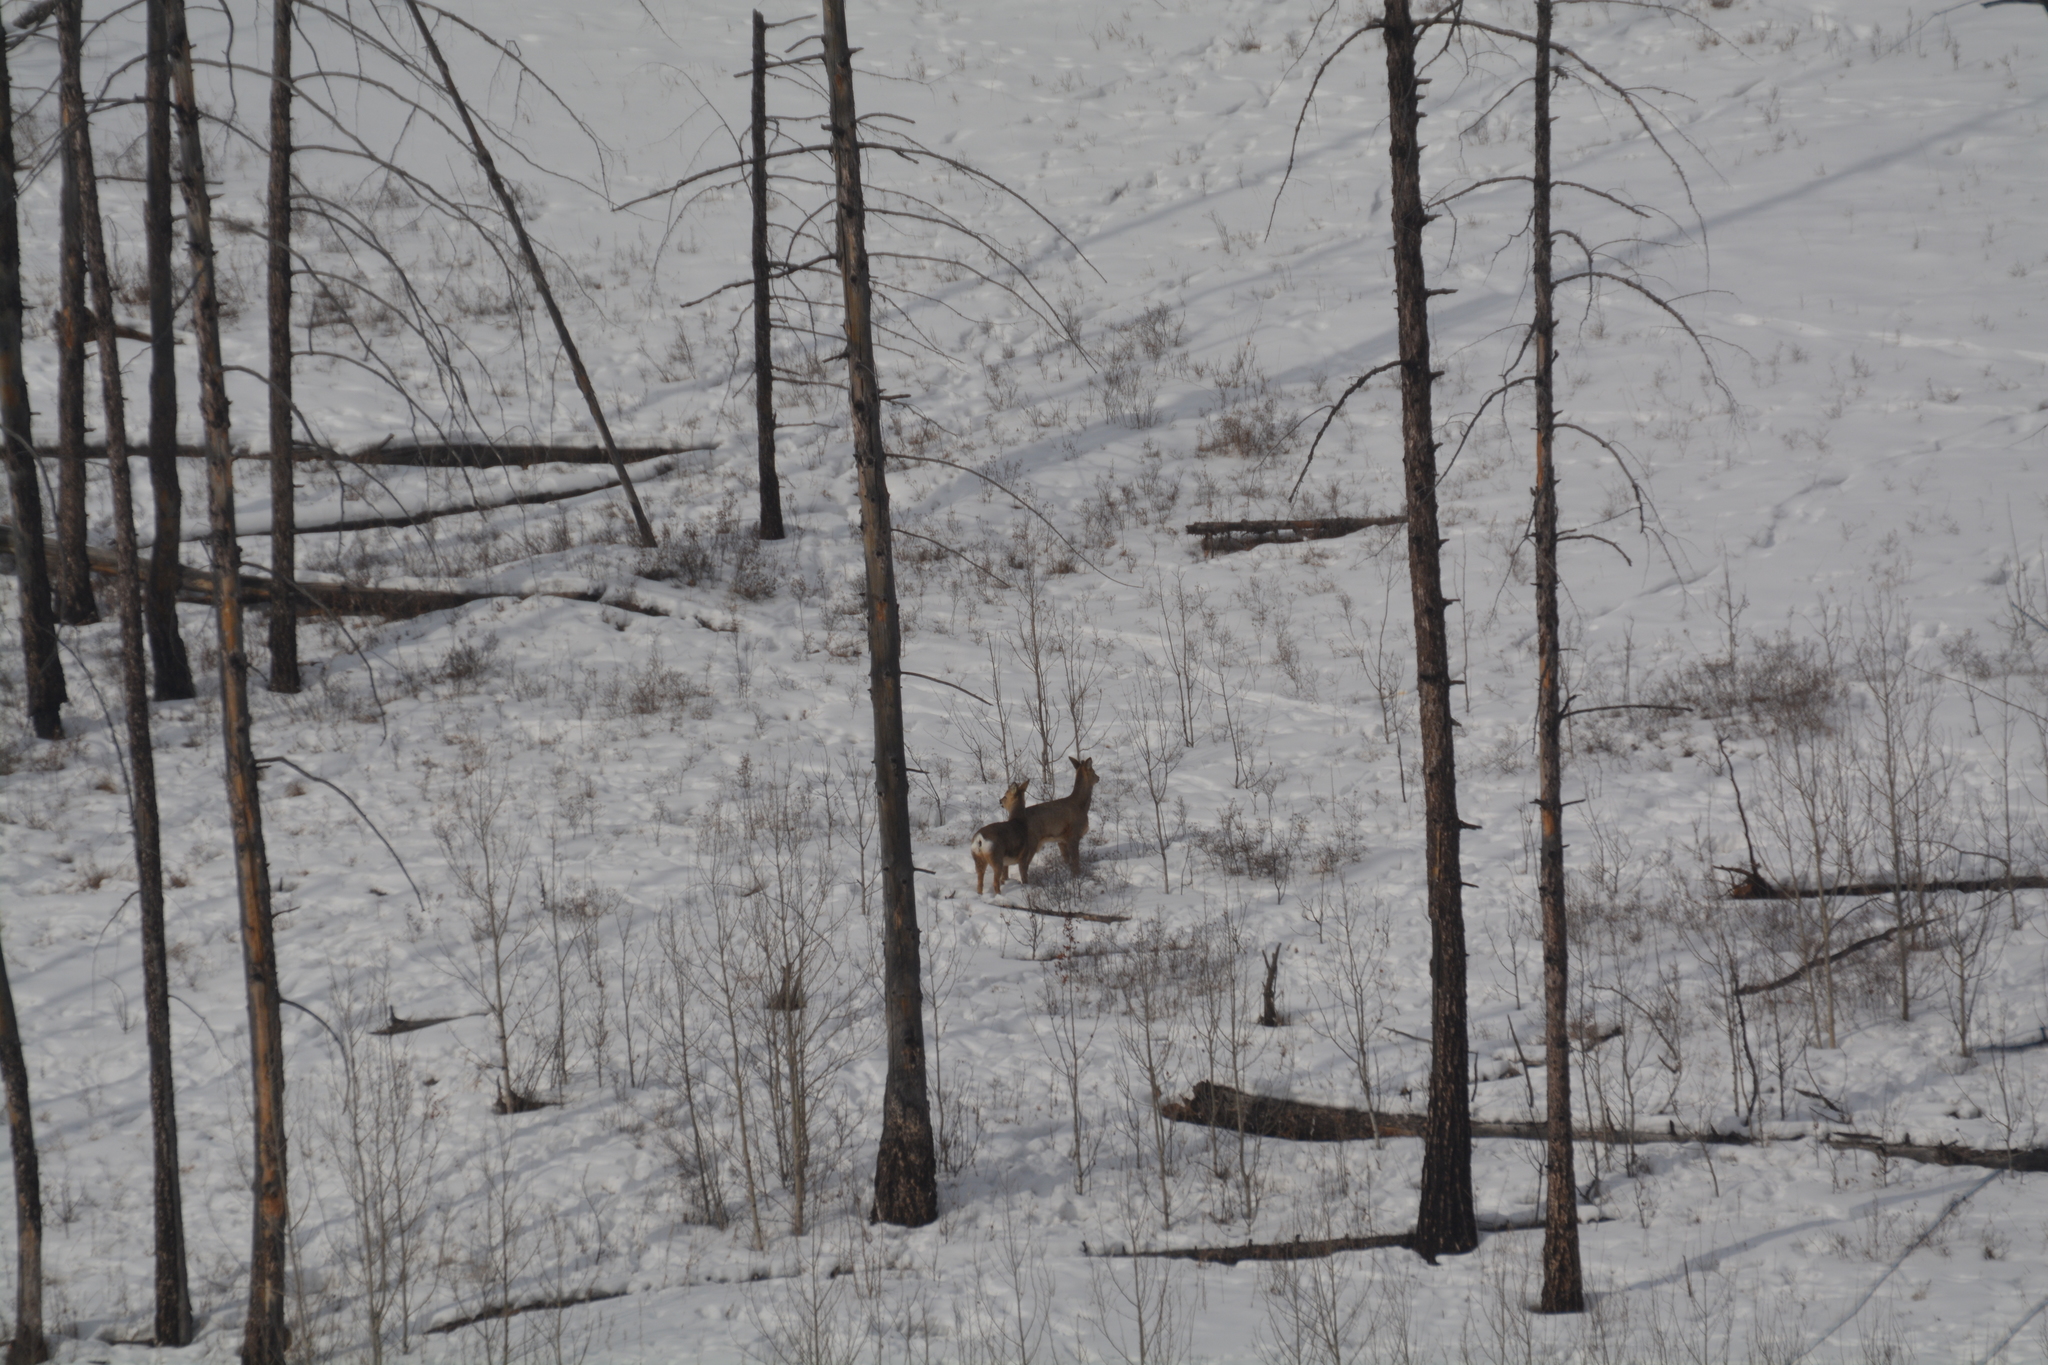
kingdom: Animalia
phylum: Chordata
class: Mammalia
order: Artiodactyla
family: Cervidae
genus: Capreolus
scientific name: Capreolus pygargus
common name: Siberian roe
